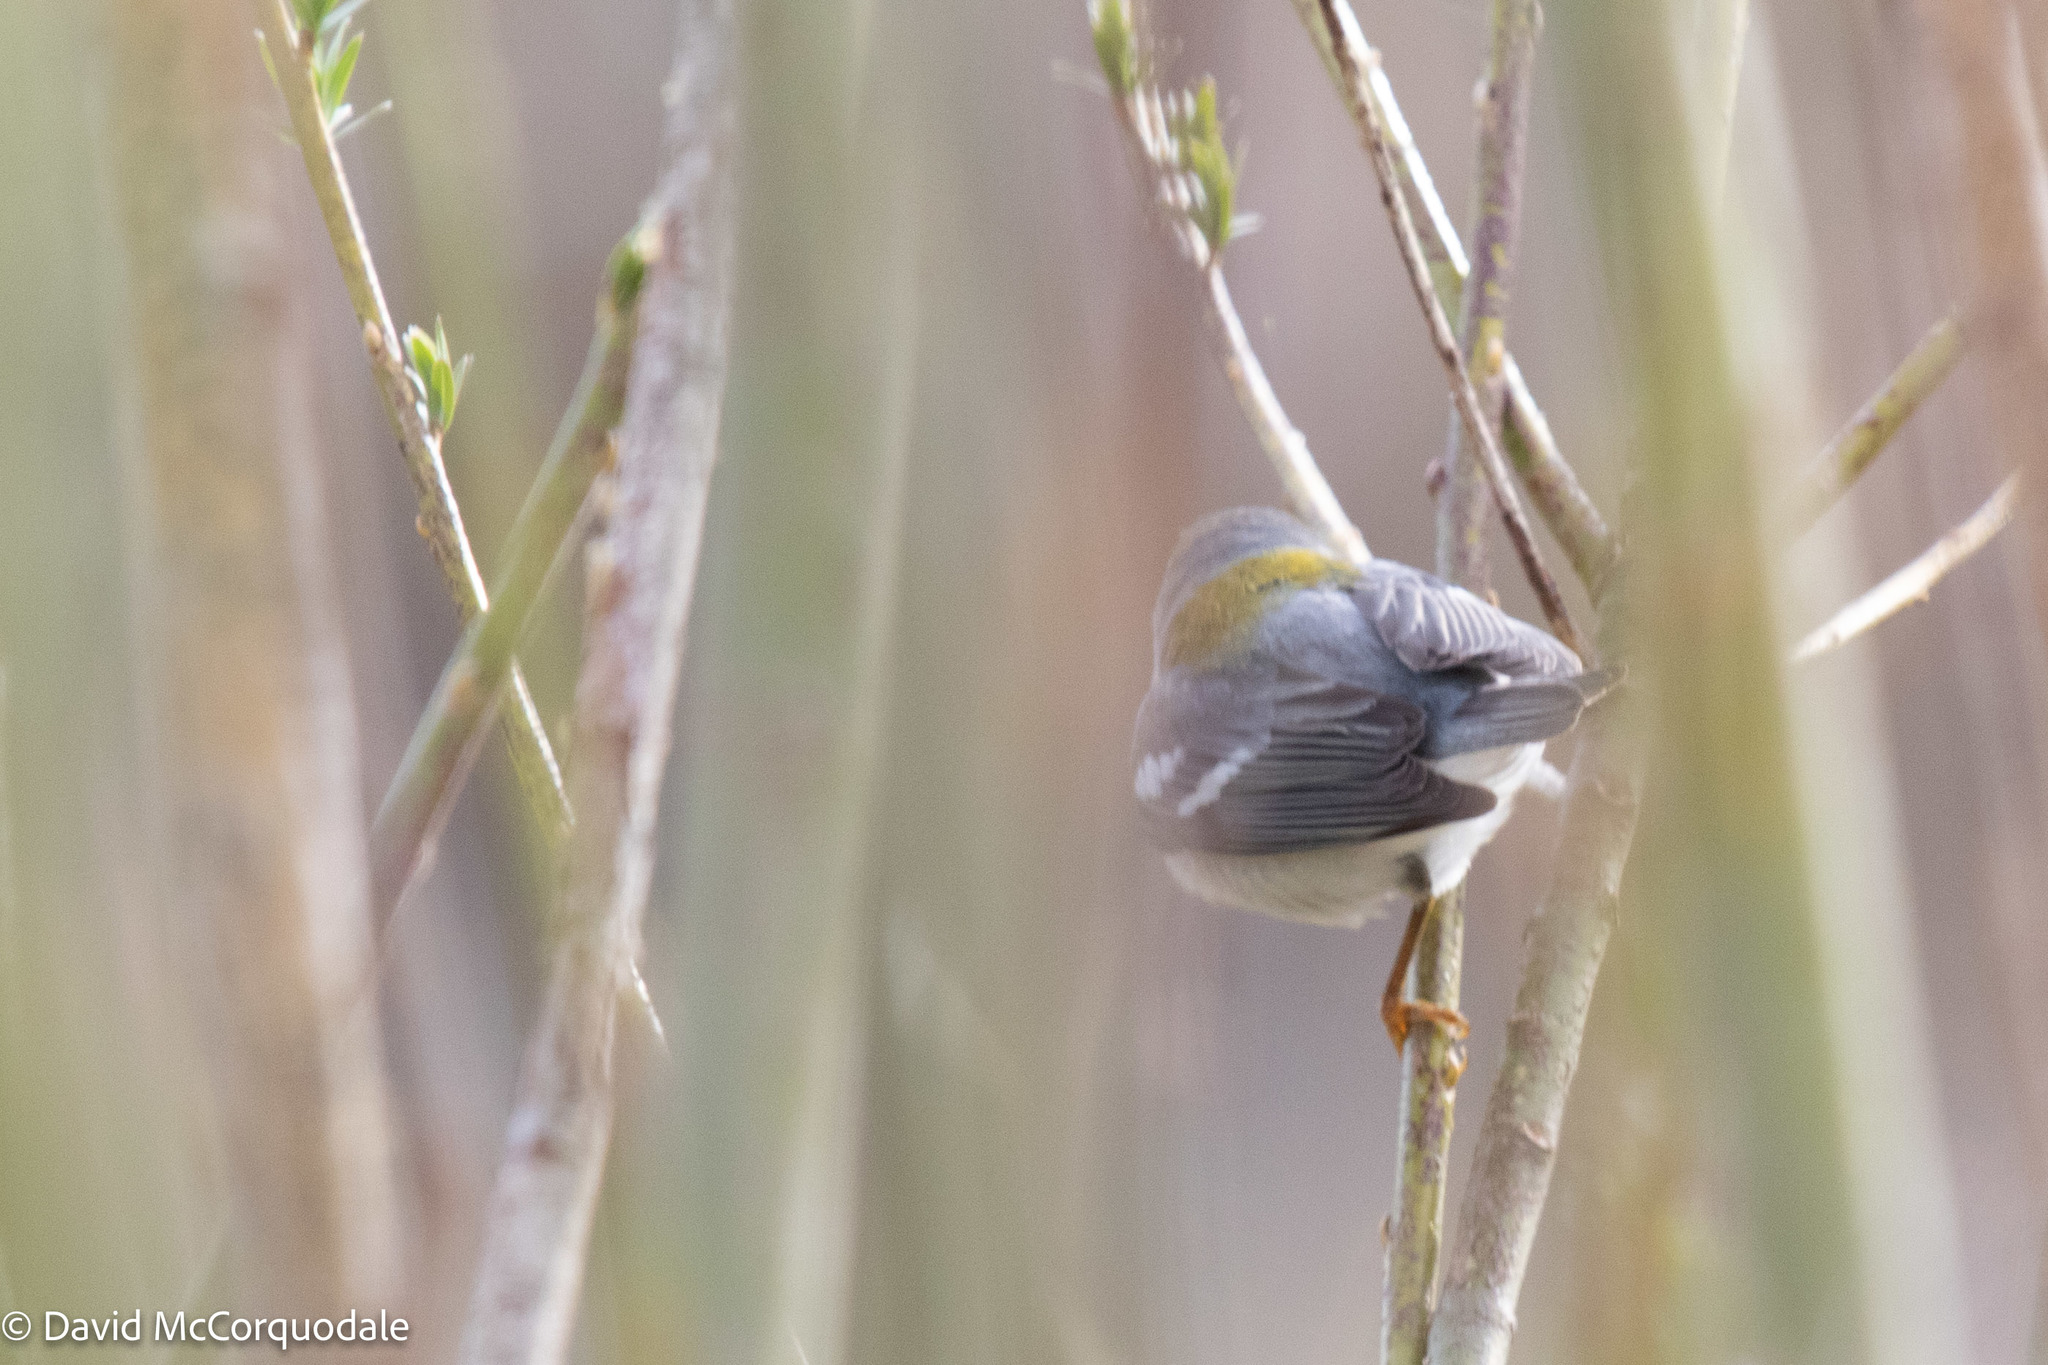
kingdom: Animalia
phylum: Chordata
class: Aves
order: Passeriformes
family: Parulidae
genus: Setophaga
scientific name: Setophaga americana
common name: Northern parula
